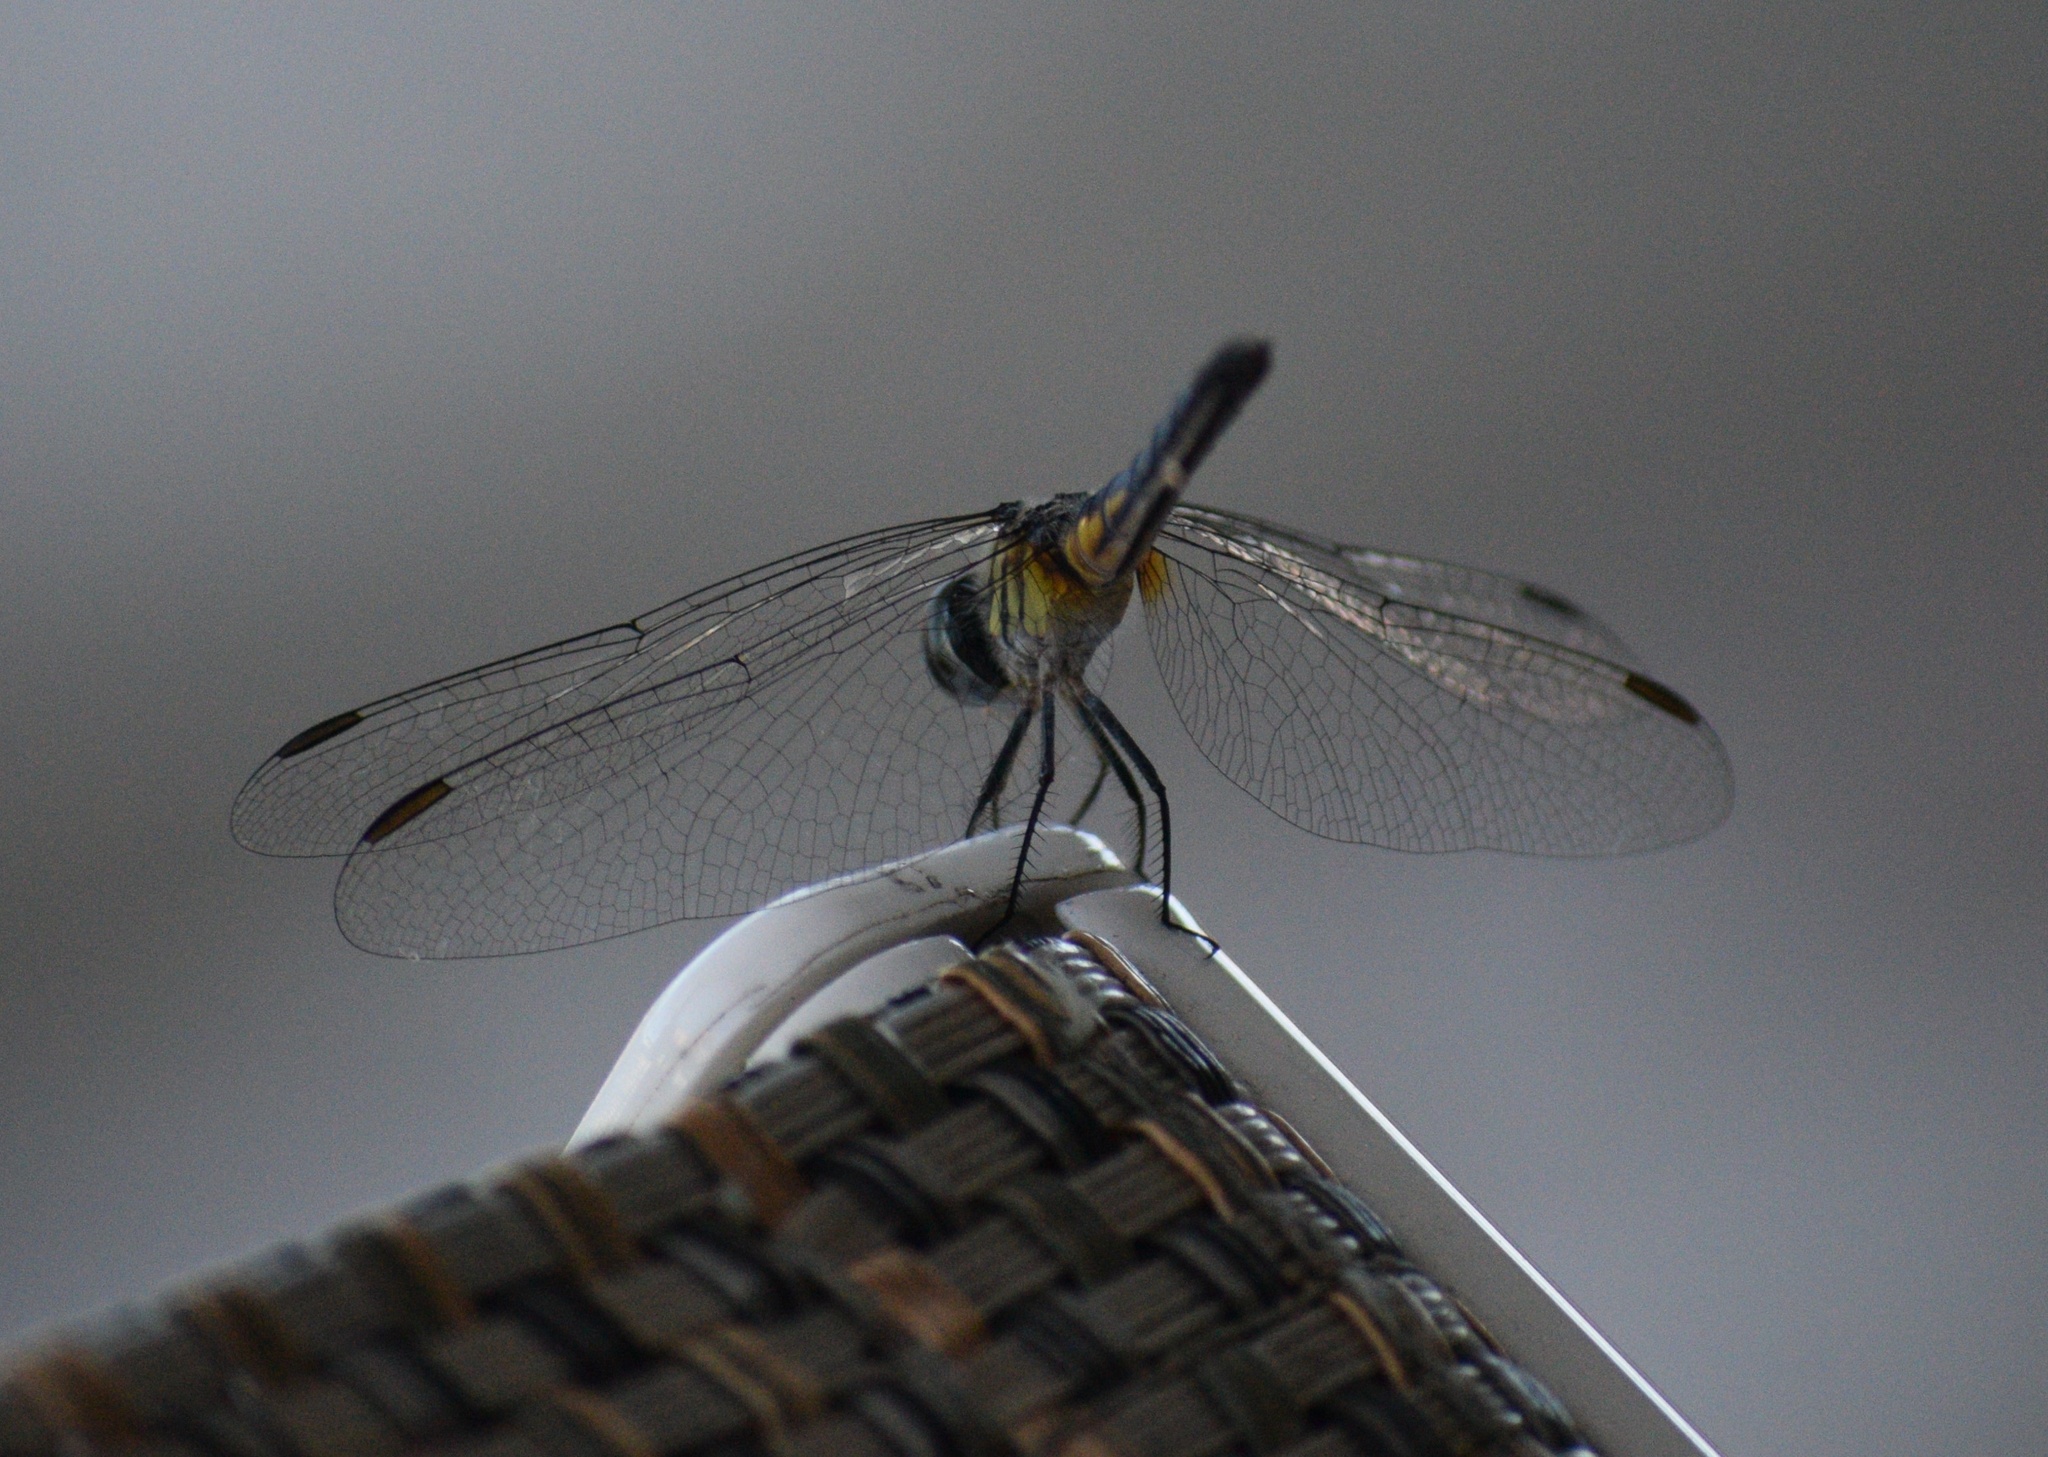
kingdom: Animalia
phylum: Arthropoda
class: Insecta
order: Odonata
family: Libellulidae
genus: Pachydiplax
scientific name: Pachydiplax longipennis
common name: Blue dasher
